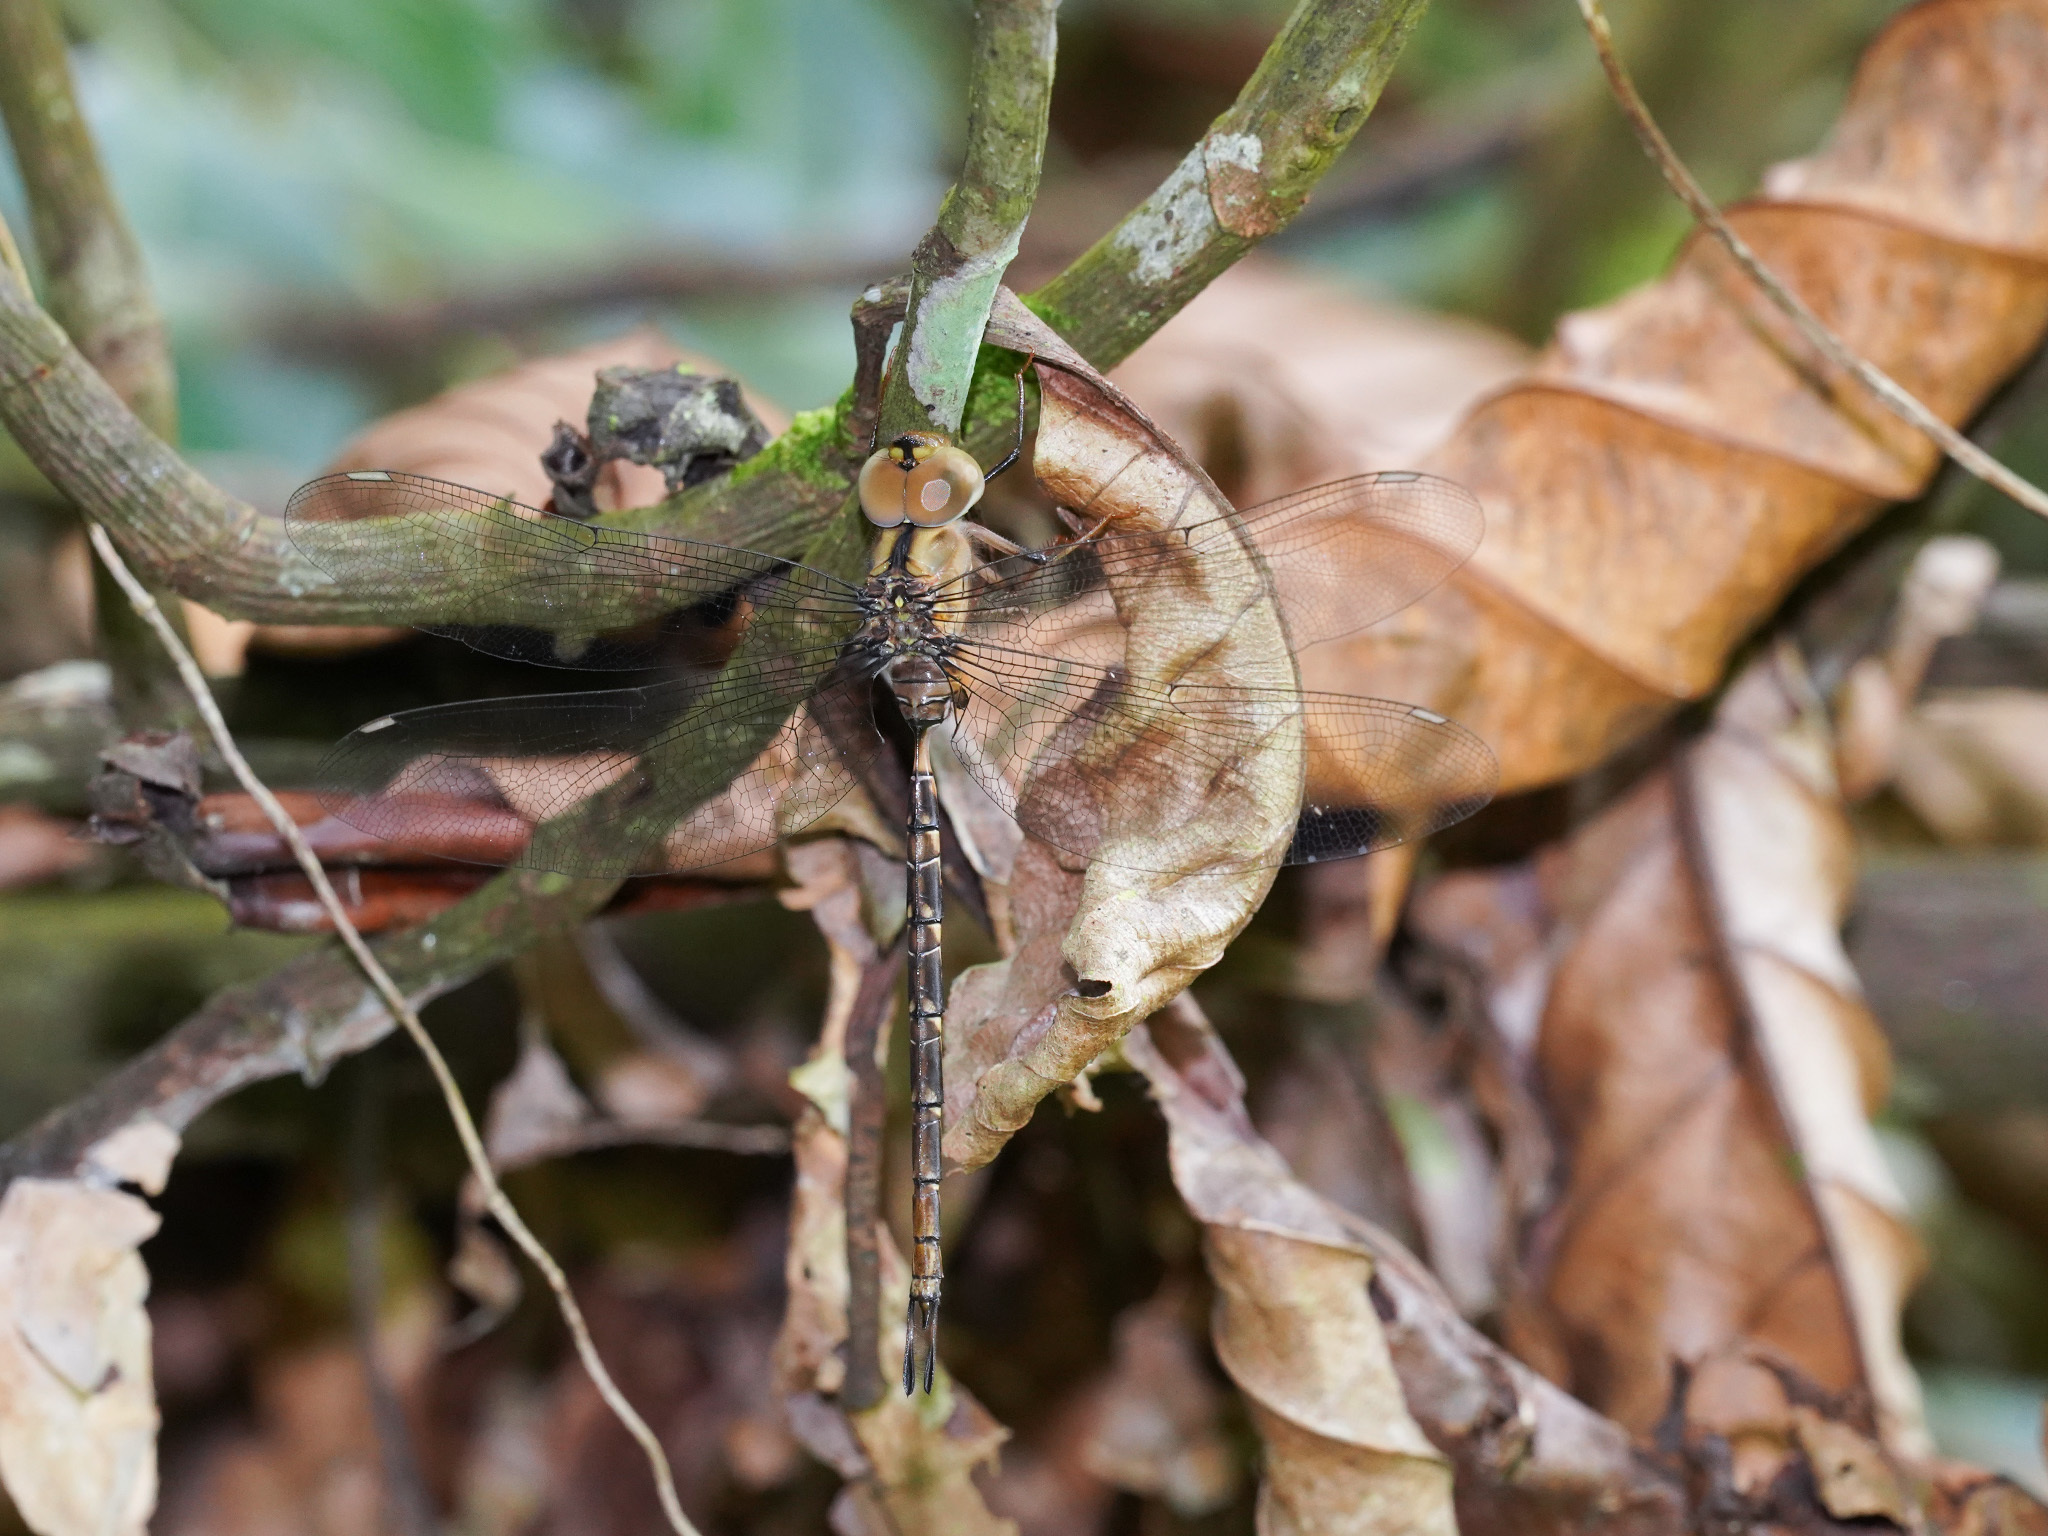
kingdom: Animalia
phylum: Arthropoda
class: Insecta
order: Odonata
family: Aeshnidae
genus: Gynacantha
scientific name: Gynacantha subinterrupta
